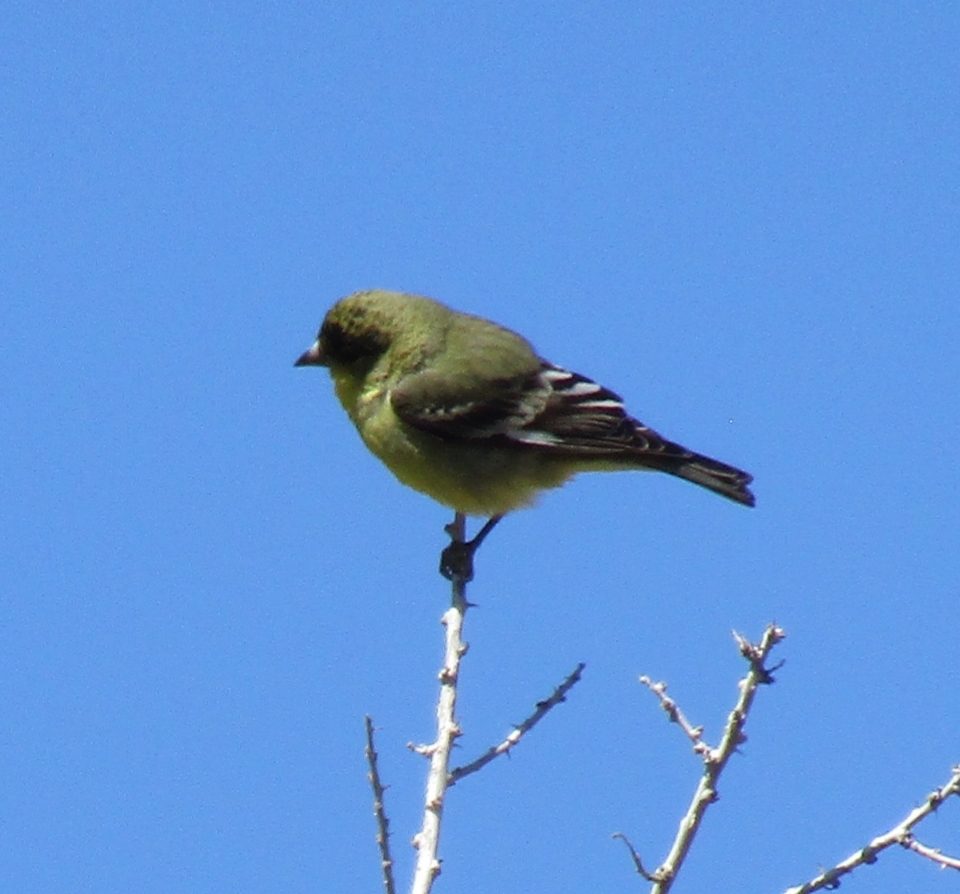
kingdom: Animalia
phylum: Chordata
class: Aves
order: Passeriformes
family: Fringillidae
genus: Spinus
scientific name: Spinus psaltria
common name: Lesser goldfinch
